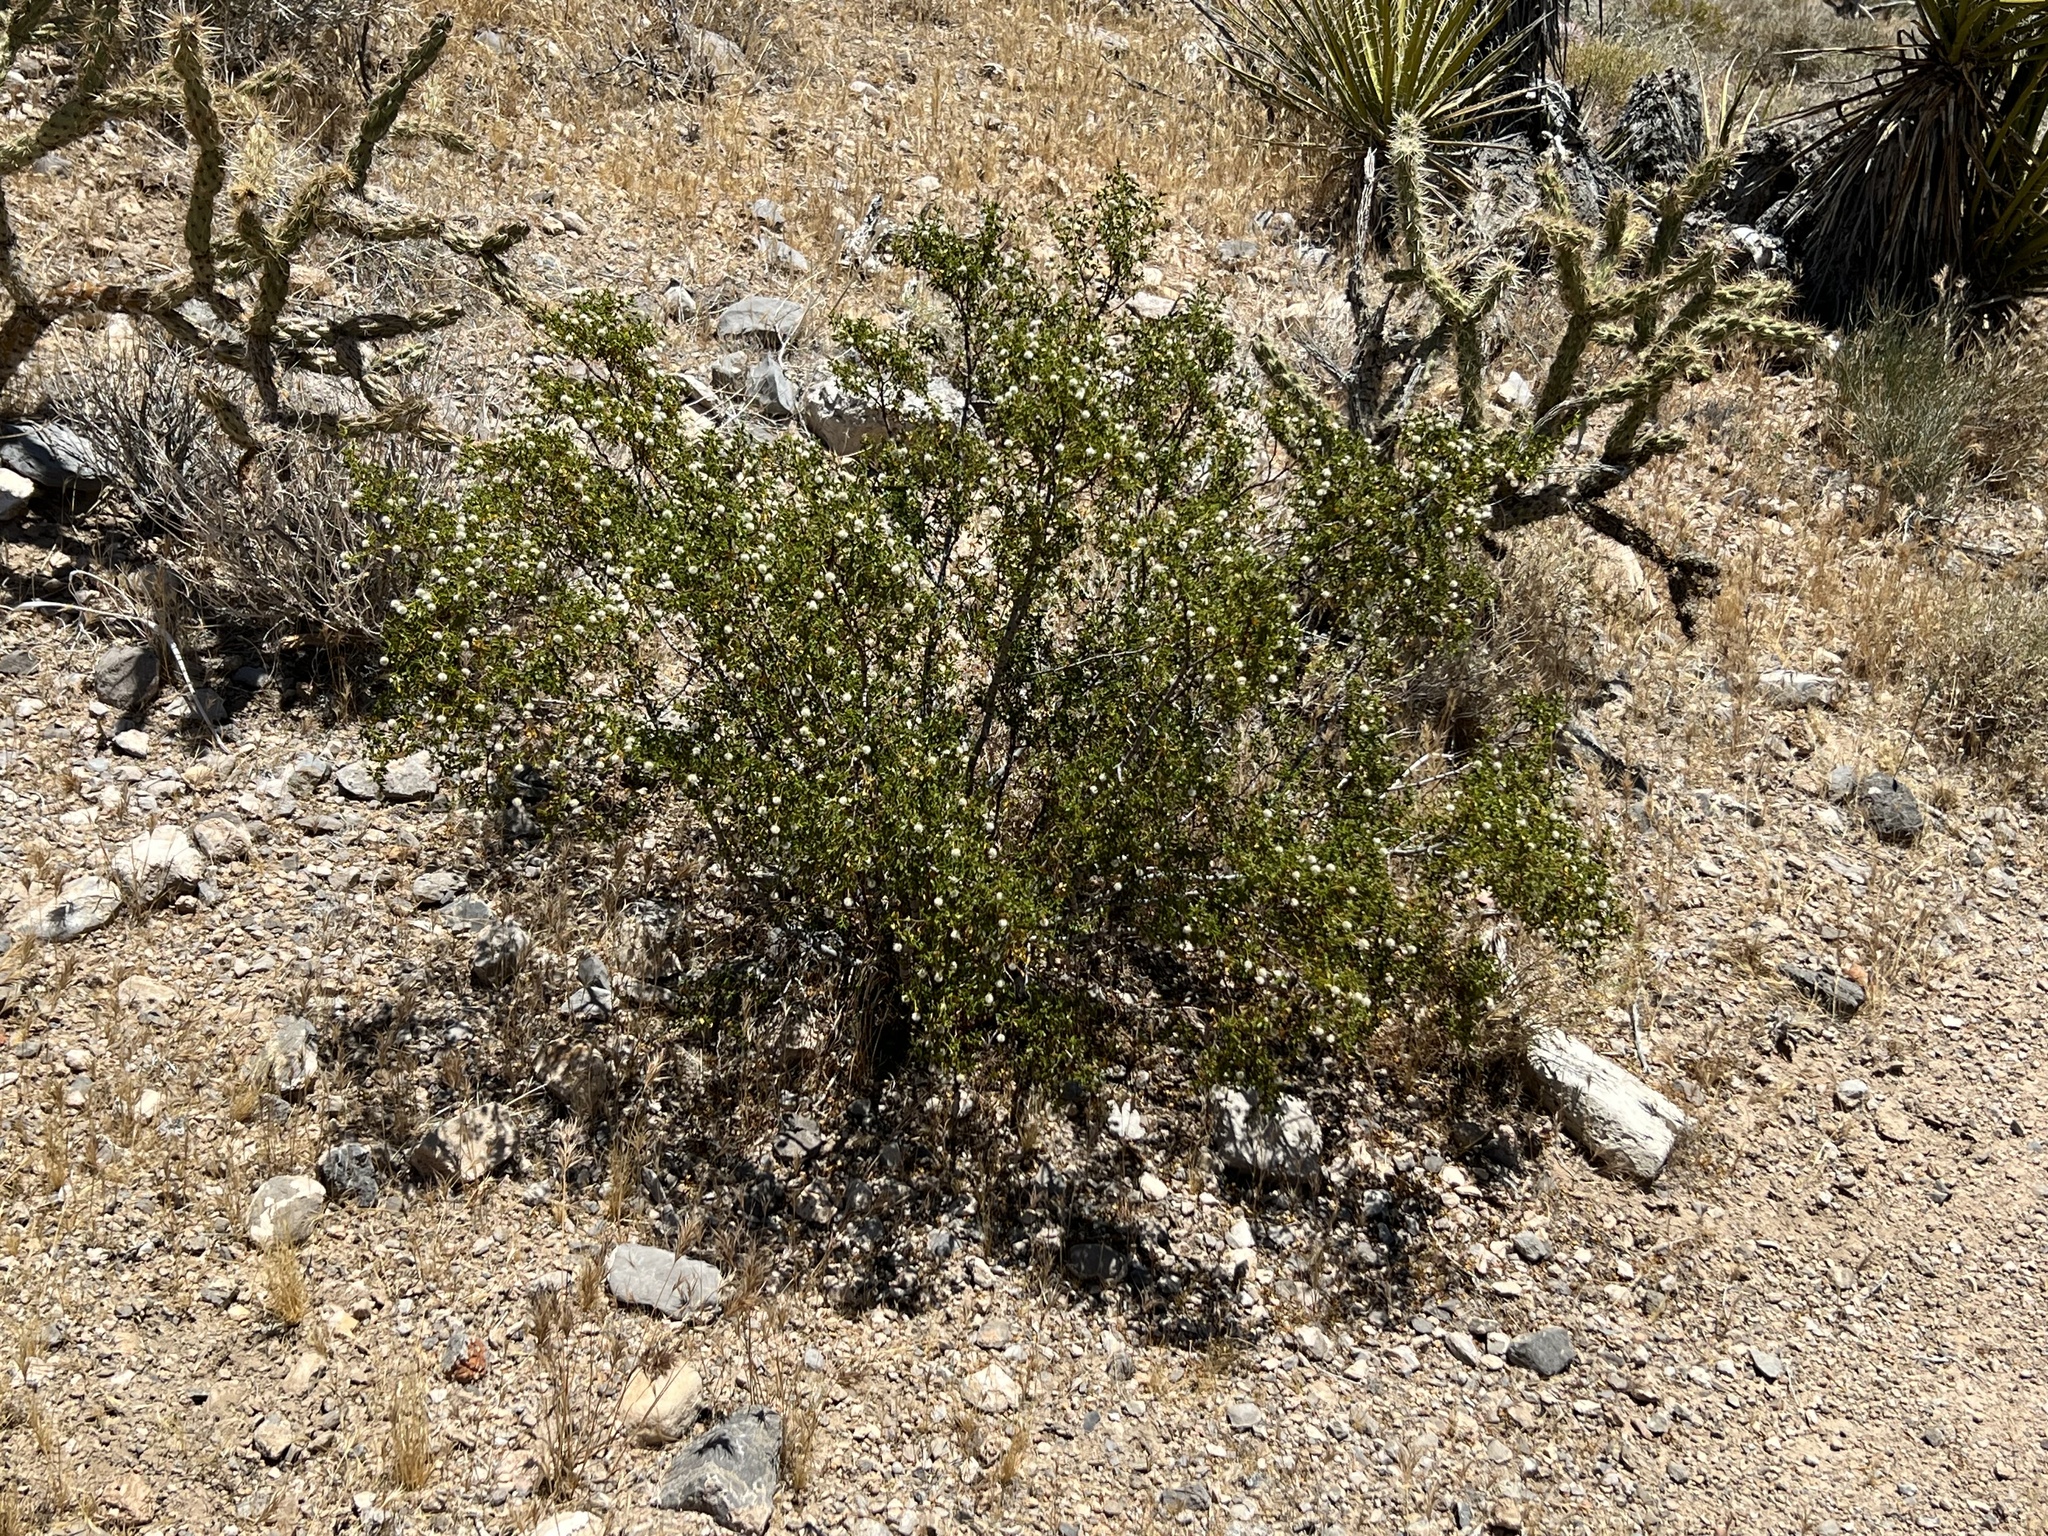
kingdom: Plantae
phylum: Tracheophyta
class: Magnoliopsida
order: Zygophyllales
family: Zygophyllaceae
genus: Larrea
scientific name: Larrea tridentata
